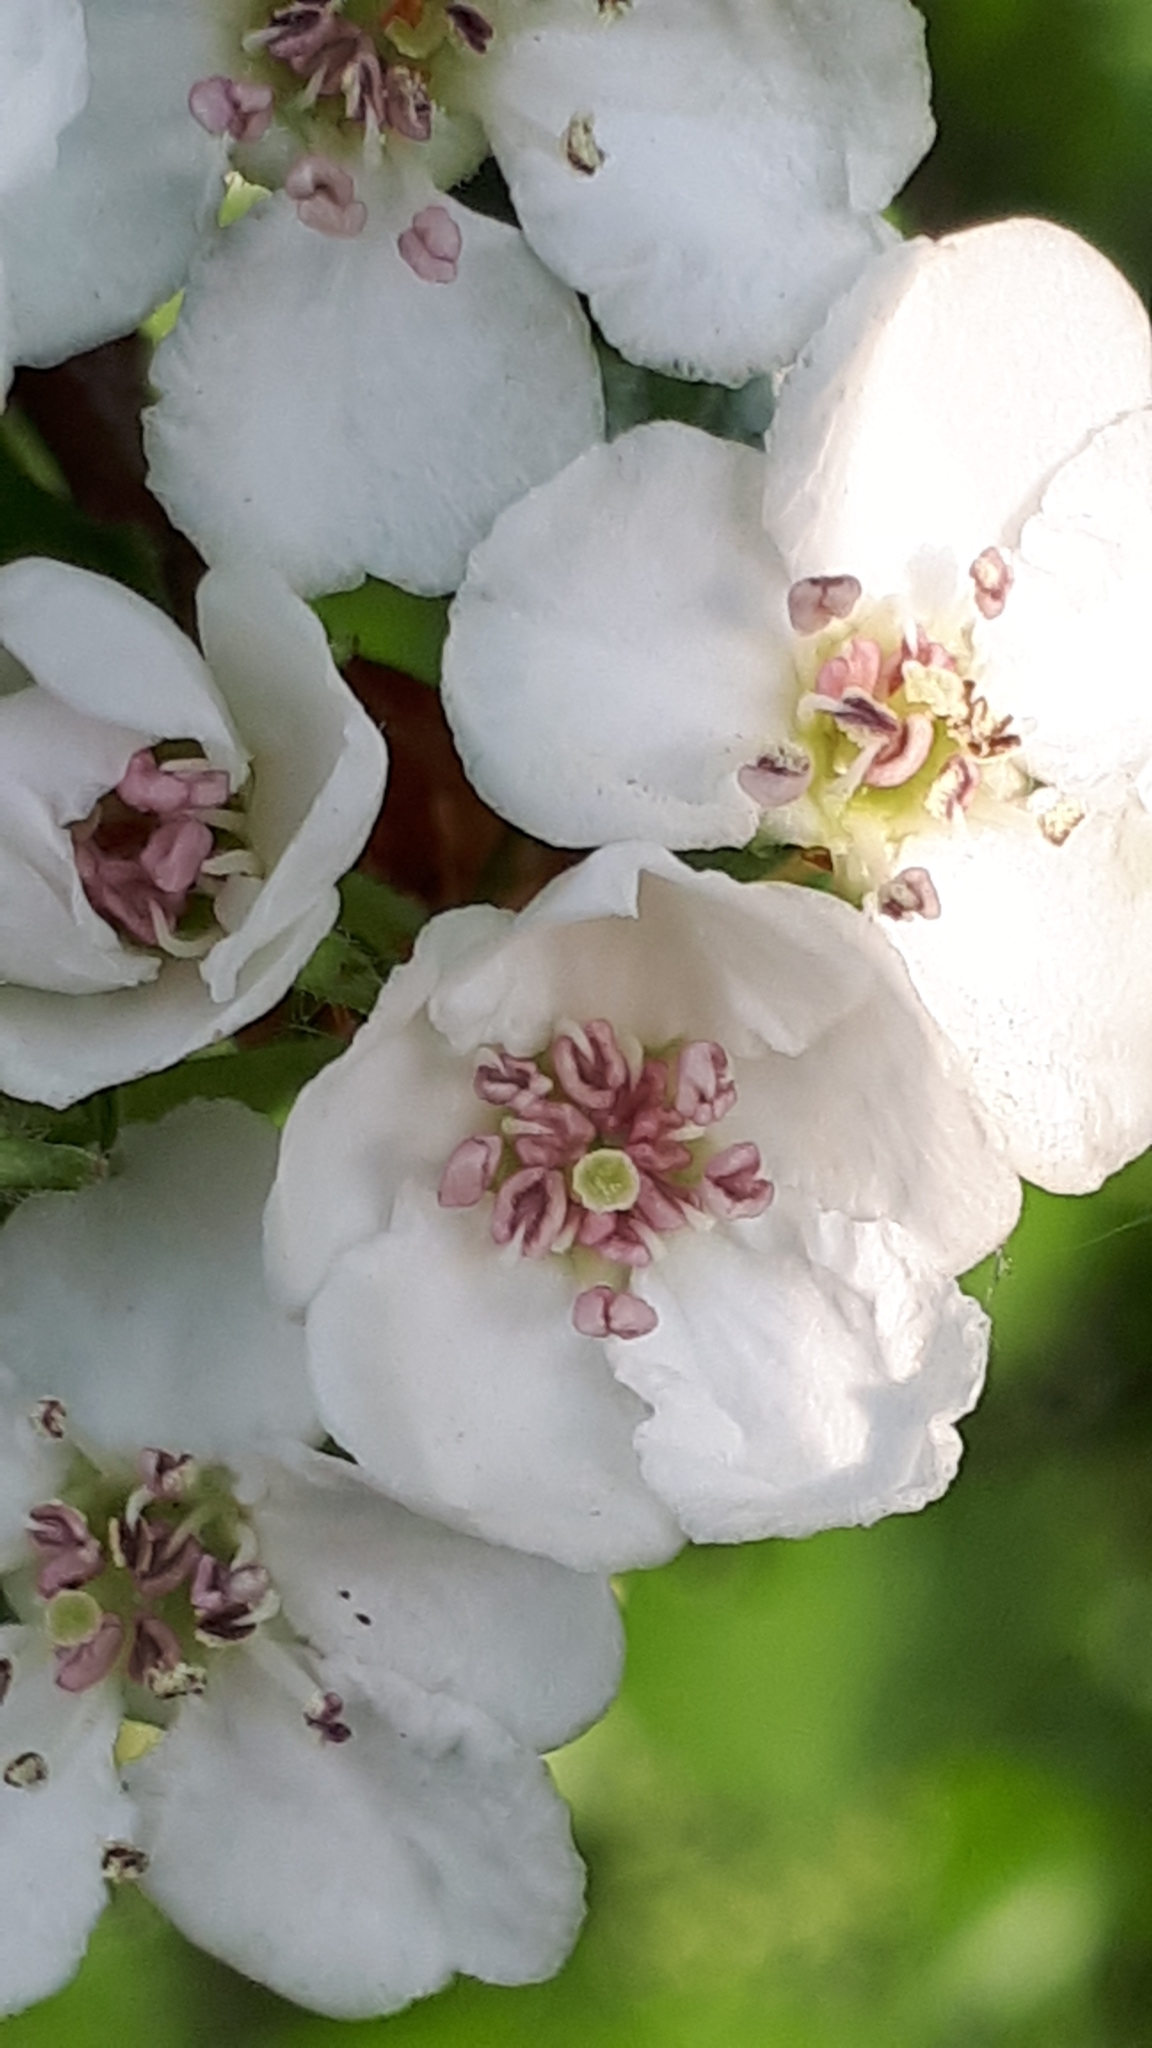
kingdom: Plantae
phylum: Tracheophyta
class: Magnoliopsida
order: Rosales
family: Rosaceae
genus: Crataegus
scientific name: Crataegus monogyna
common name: Hawthorn
